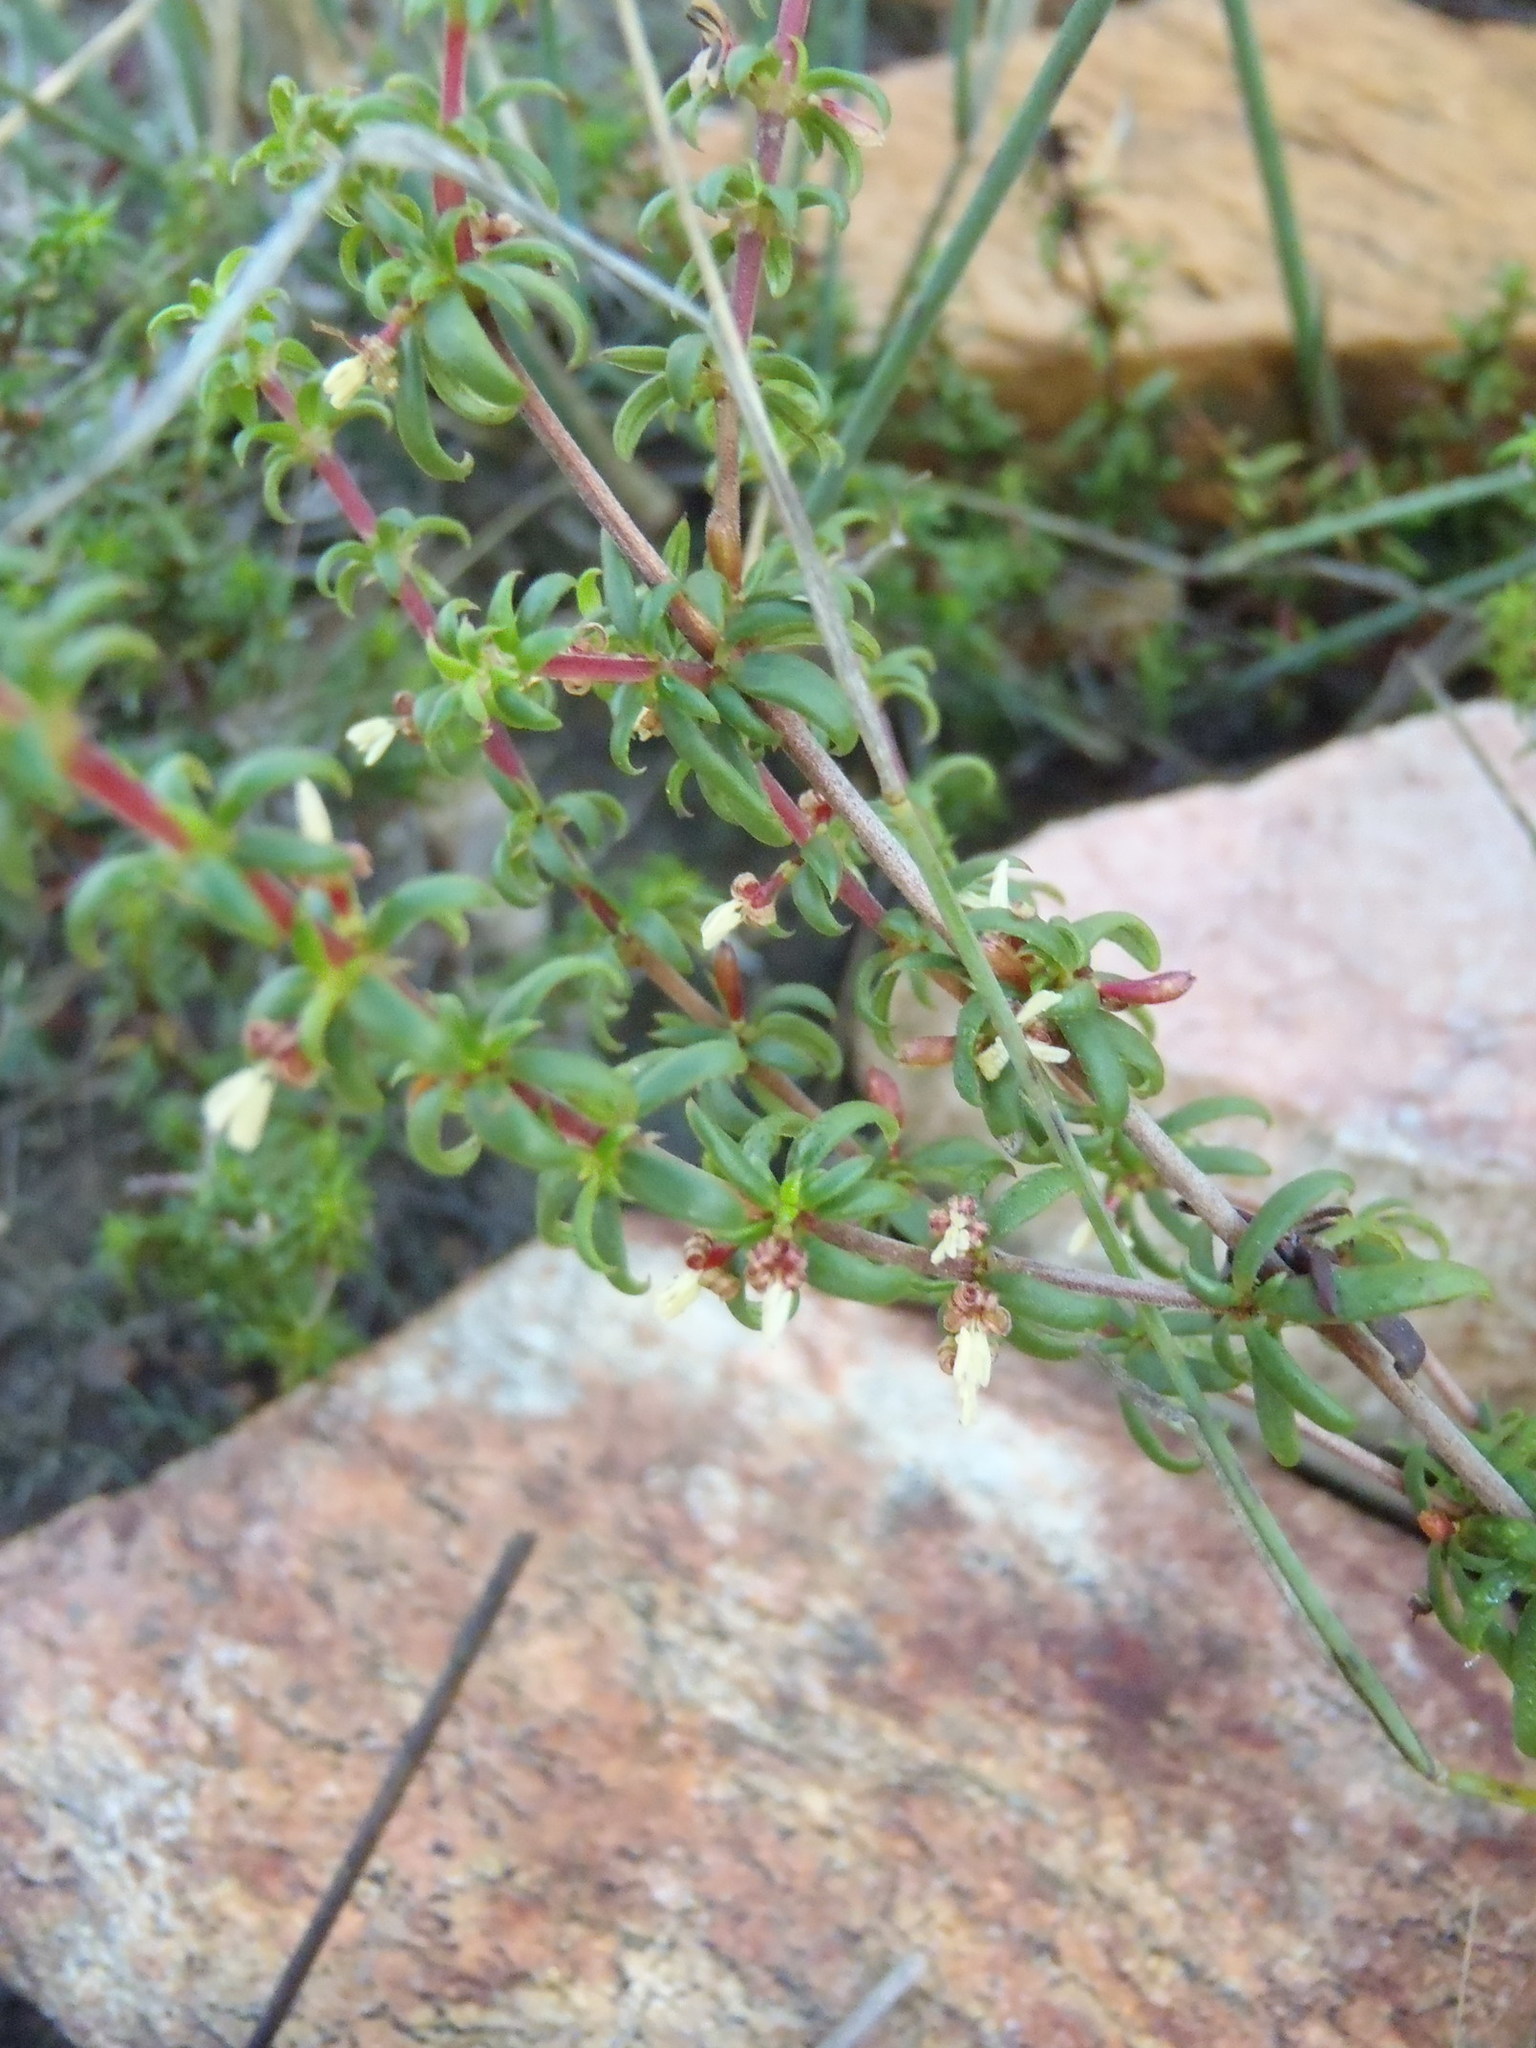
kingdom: Plantae
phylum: Tracheophyta
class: Magnoliopsida
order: Gentianales
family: Rubiaceae
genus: Anthospermum
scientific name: Anthospermum galioides
